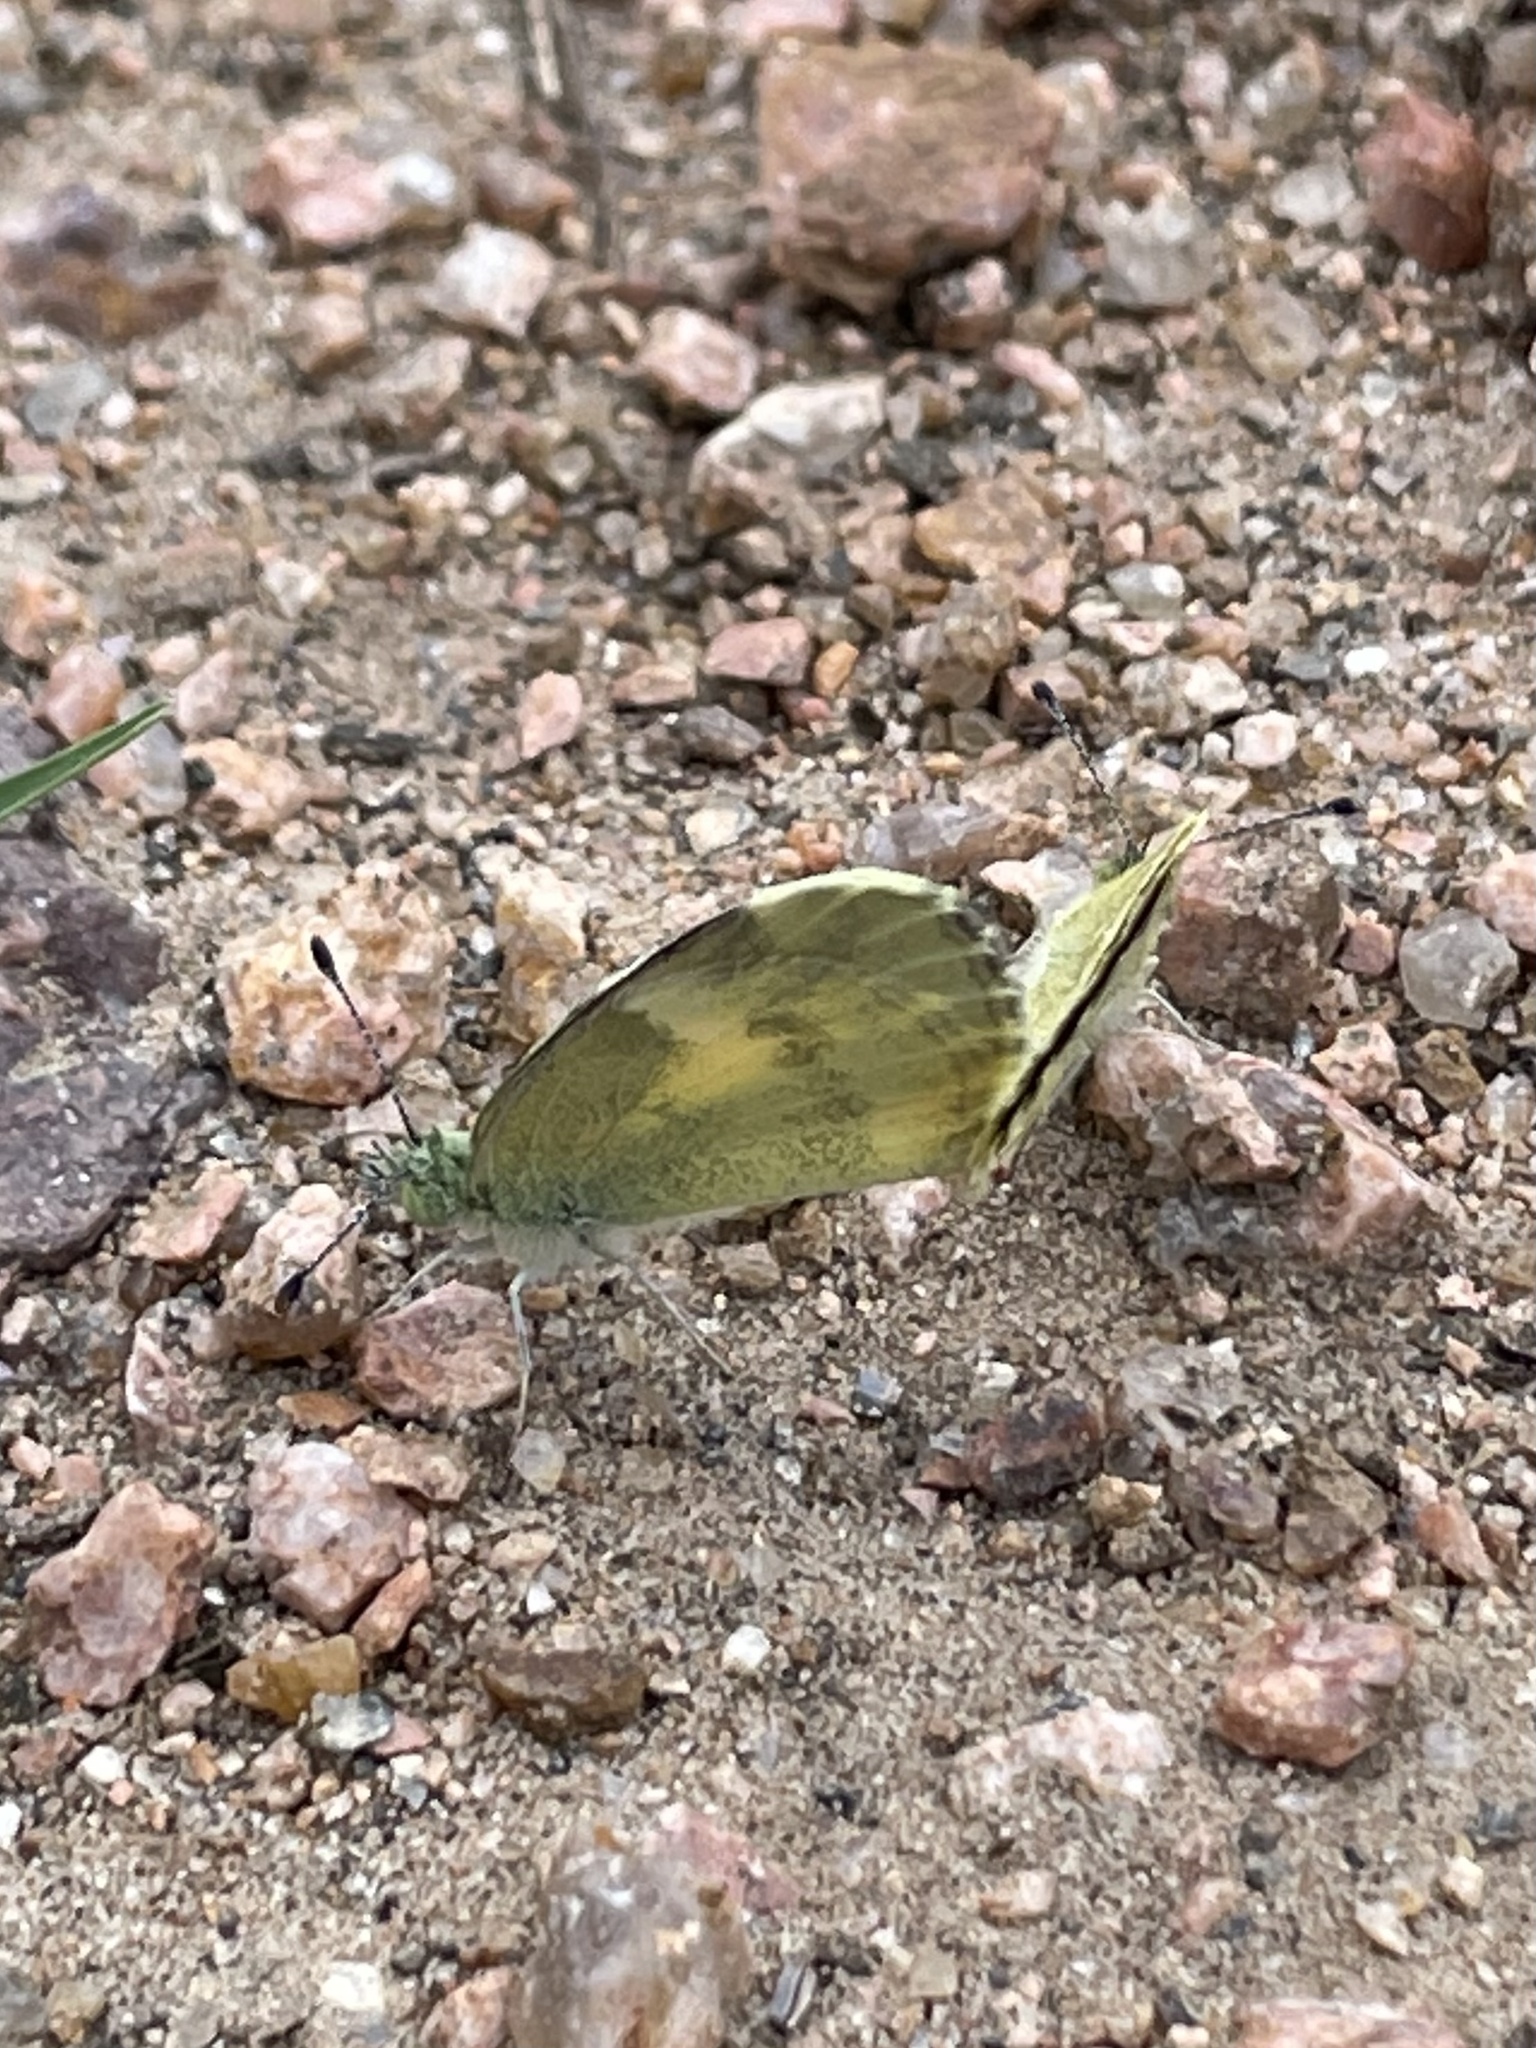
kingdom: Animalia
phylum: Arthropoda
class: Insecta
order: Lepidoptera
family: Pieridae
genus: Nathalis
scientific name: Nathalis iole
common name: Dainty sulphur
